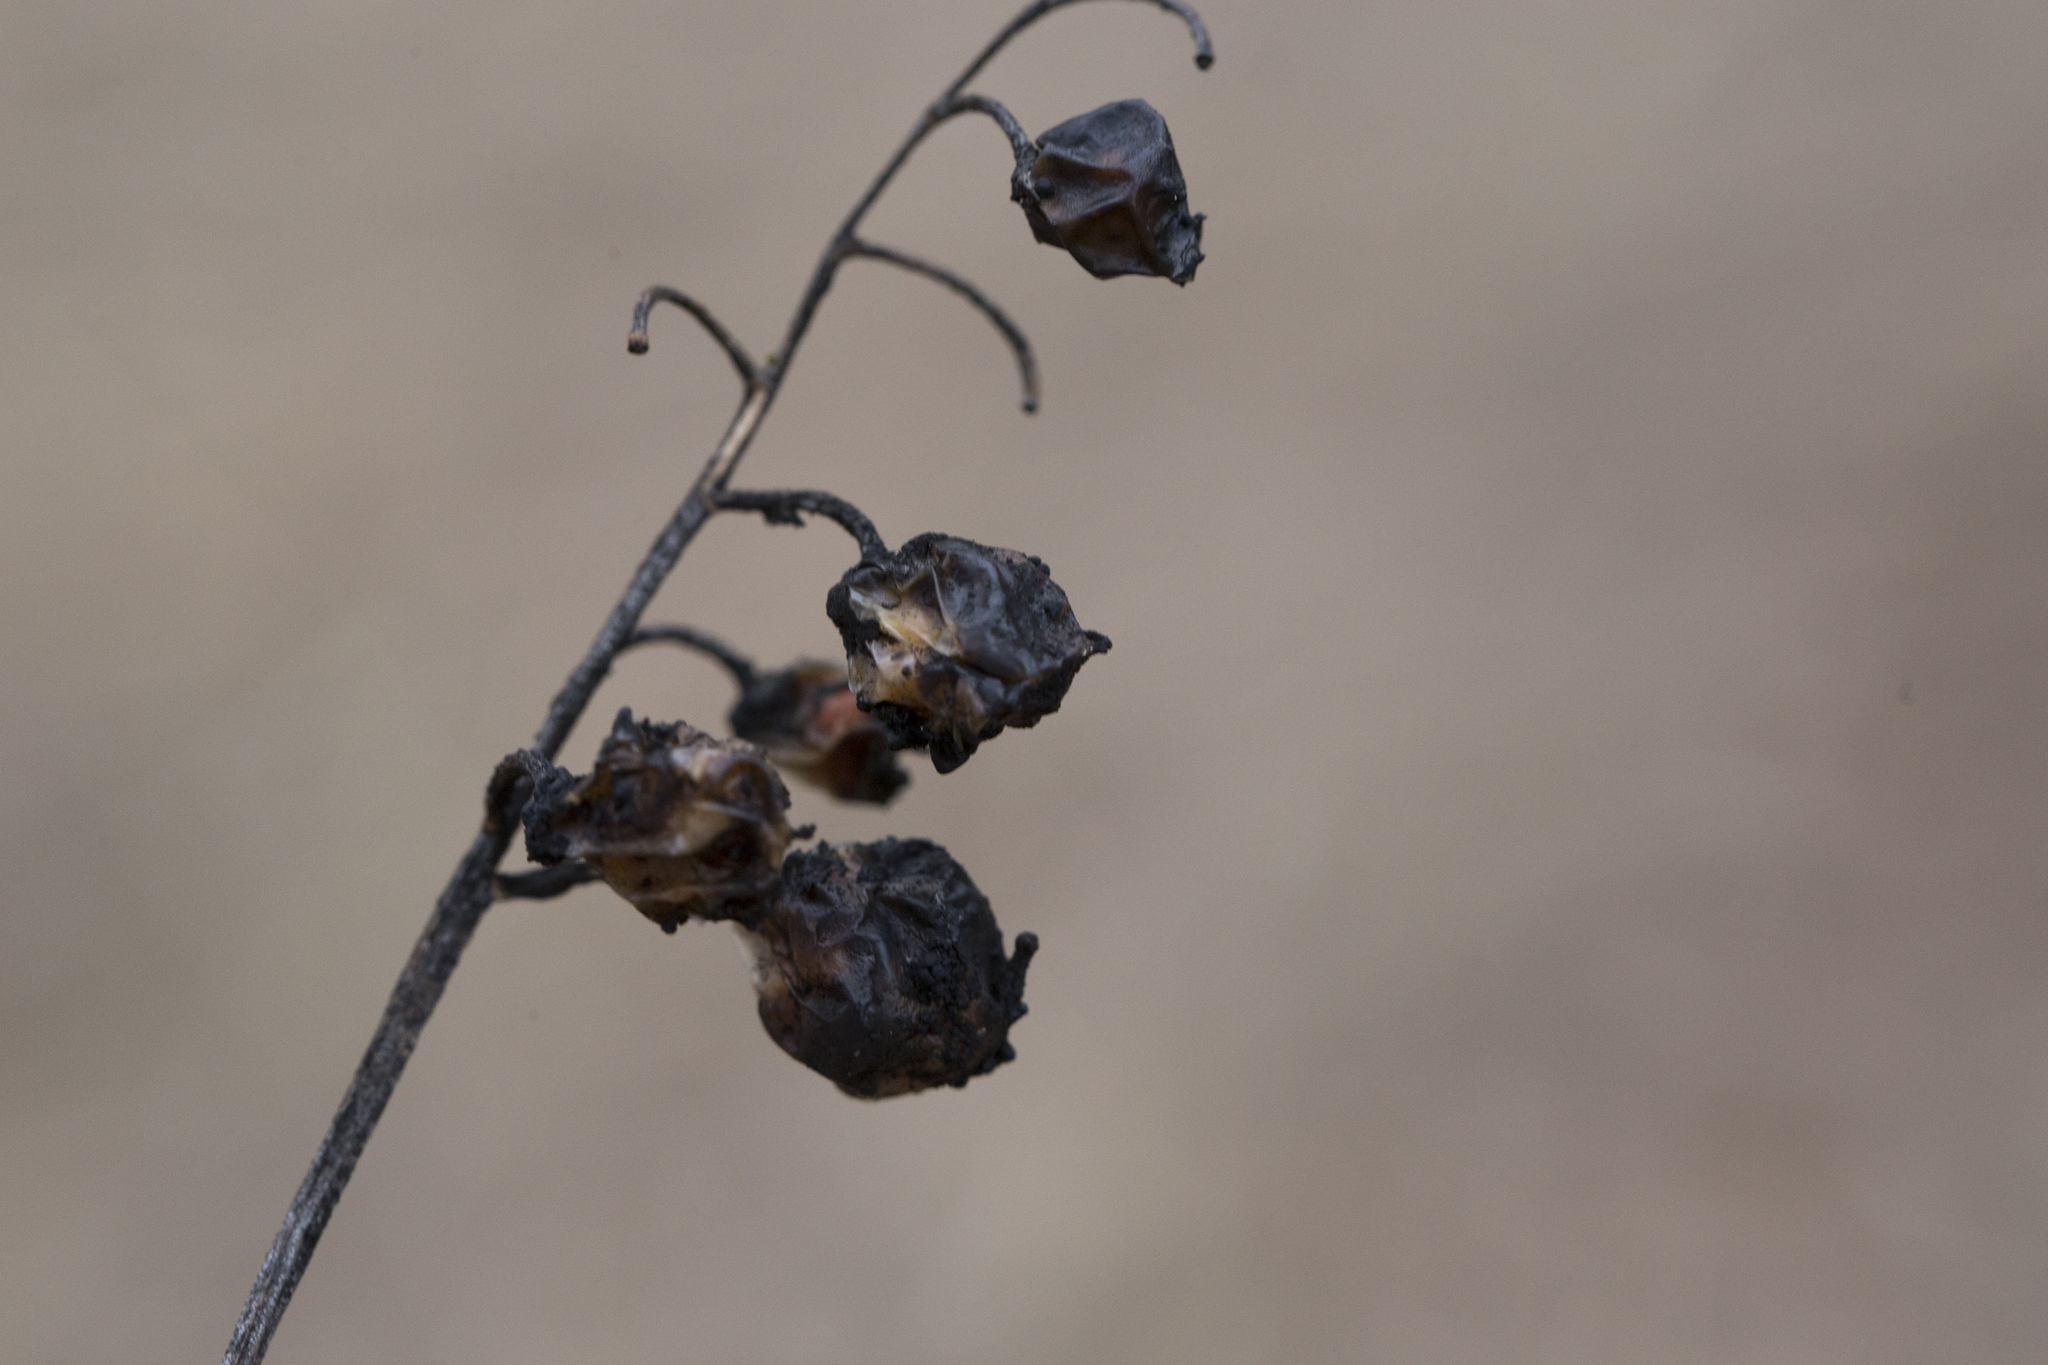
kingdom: Plantae
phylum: Tracheophyta
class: Liliopsida
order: Asparagales
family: Asparagaceae
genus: Convallaria
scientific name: Convallaria majalis
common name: Lily-of-the-valley
